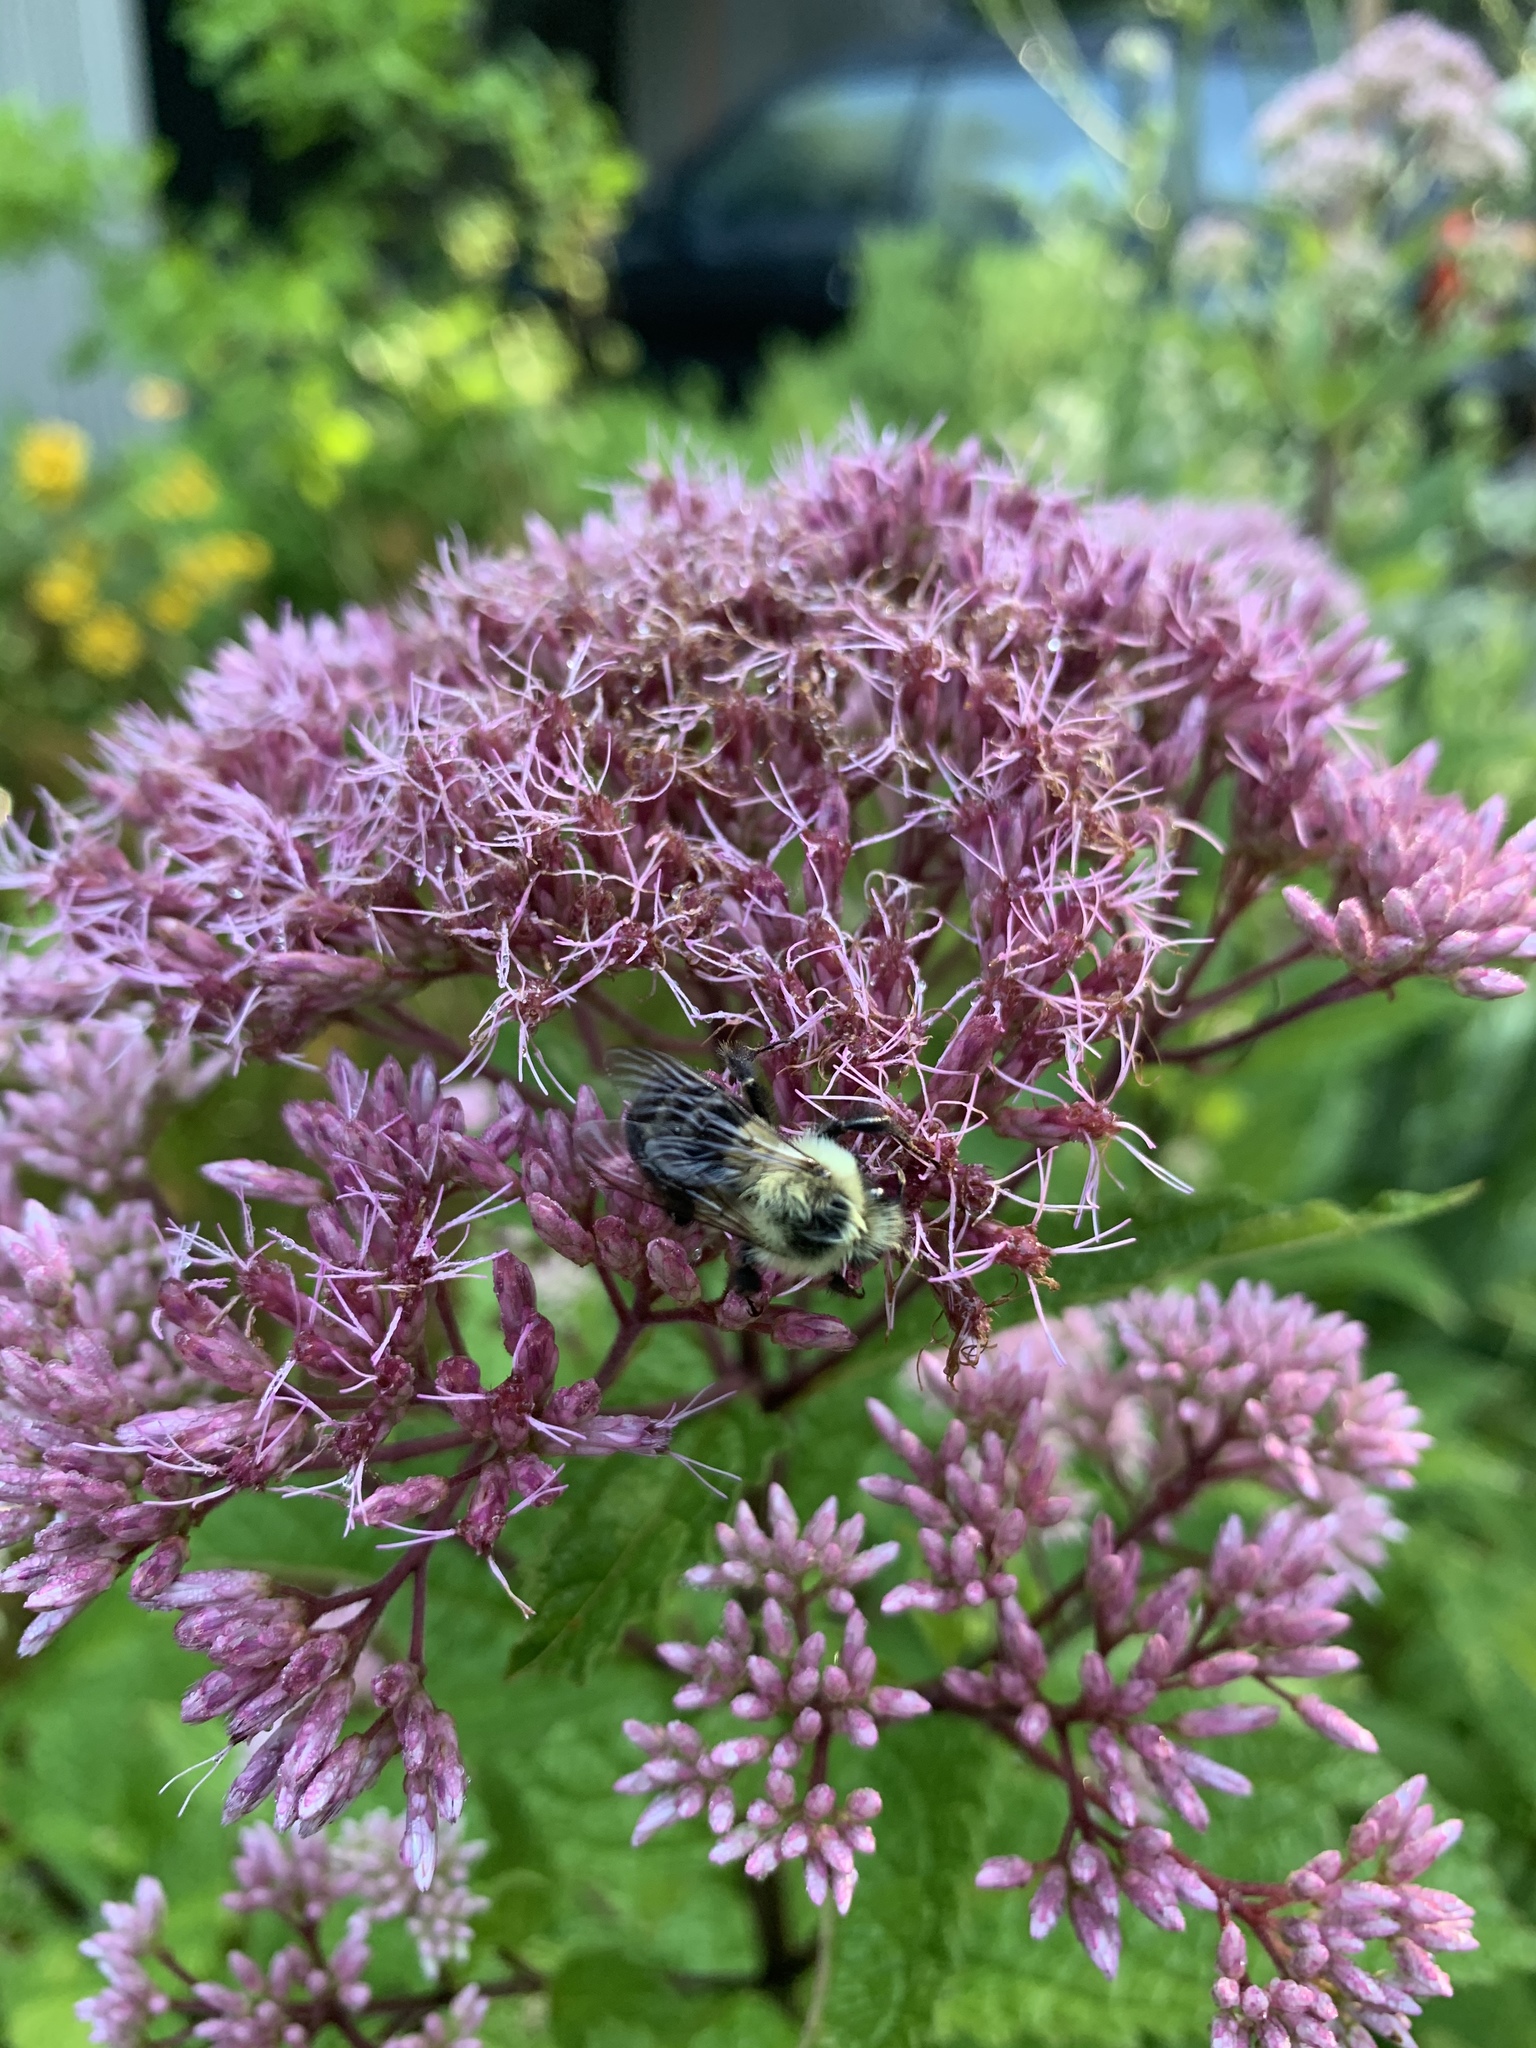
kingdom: Animalia
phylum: Arthropoda
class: Insecta
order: Hymenoptera
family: Apidae
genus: Bombus
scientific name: Bombus impatiens
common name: Common eastern bumble bee
